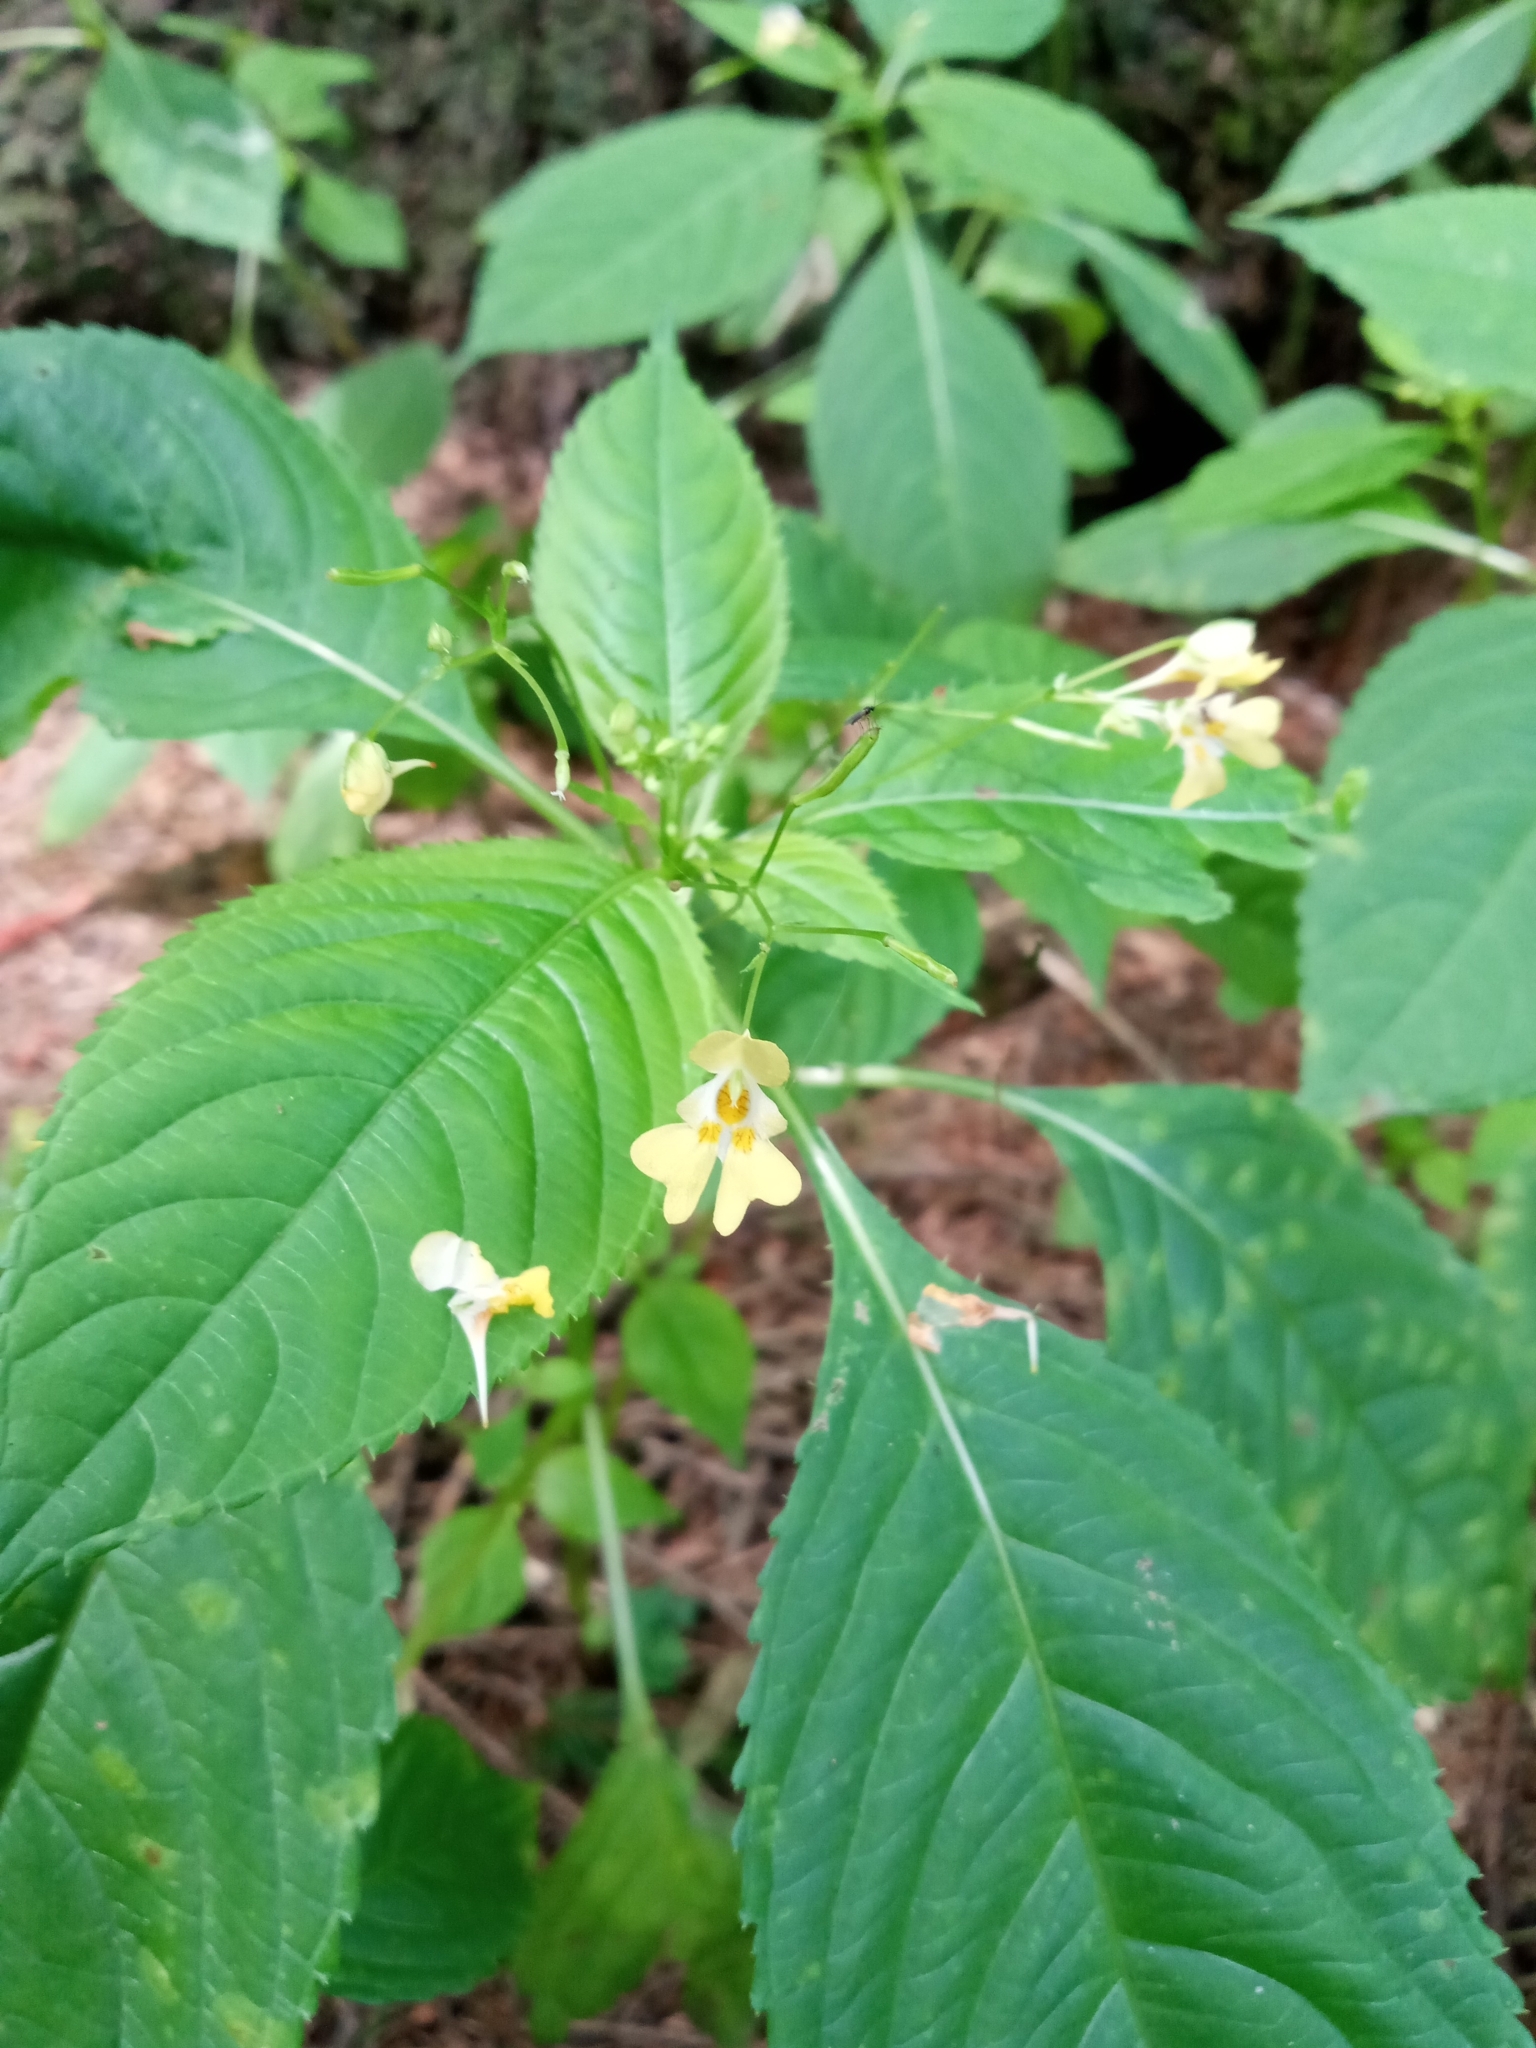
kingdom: Plantae
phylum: Tracheophyta
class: Magnoliopsida
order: Ericales
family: Balsaminaceae
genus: Impatiens
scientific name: Impatiens parviflora
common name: Small balsam
